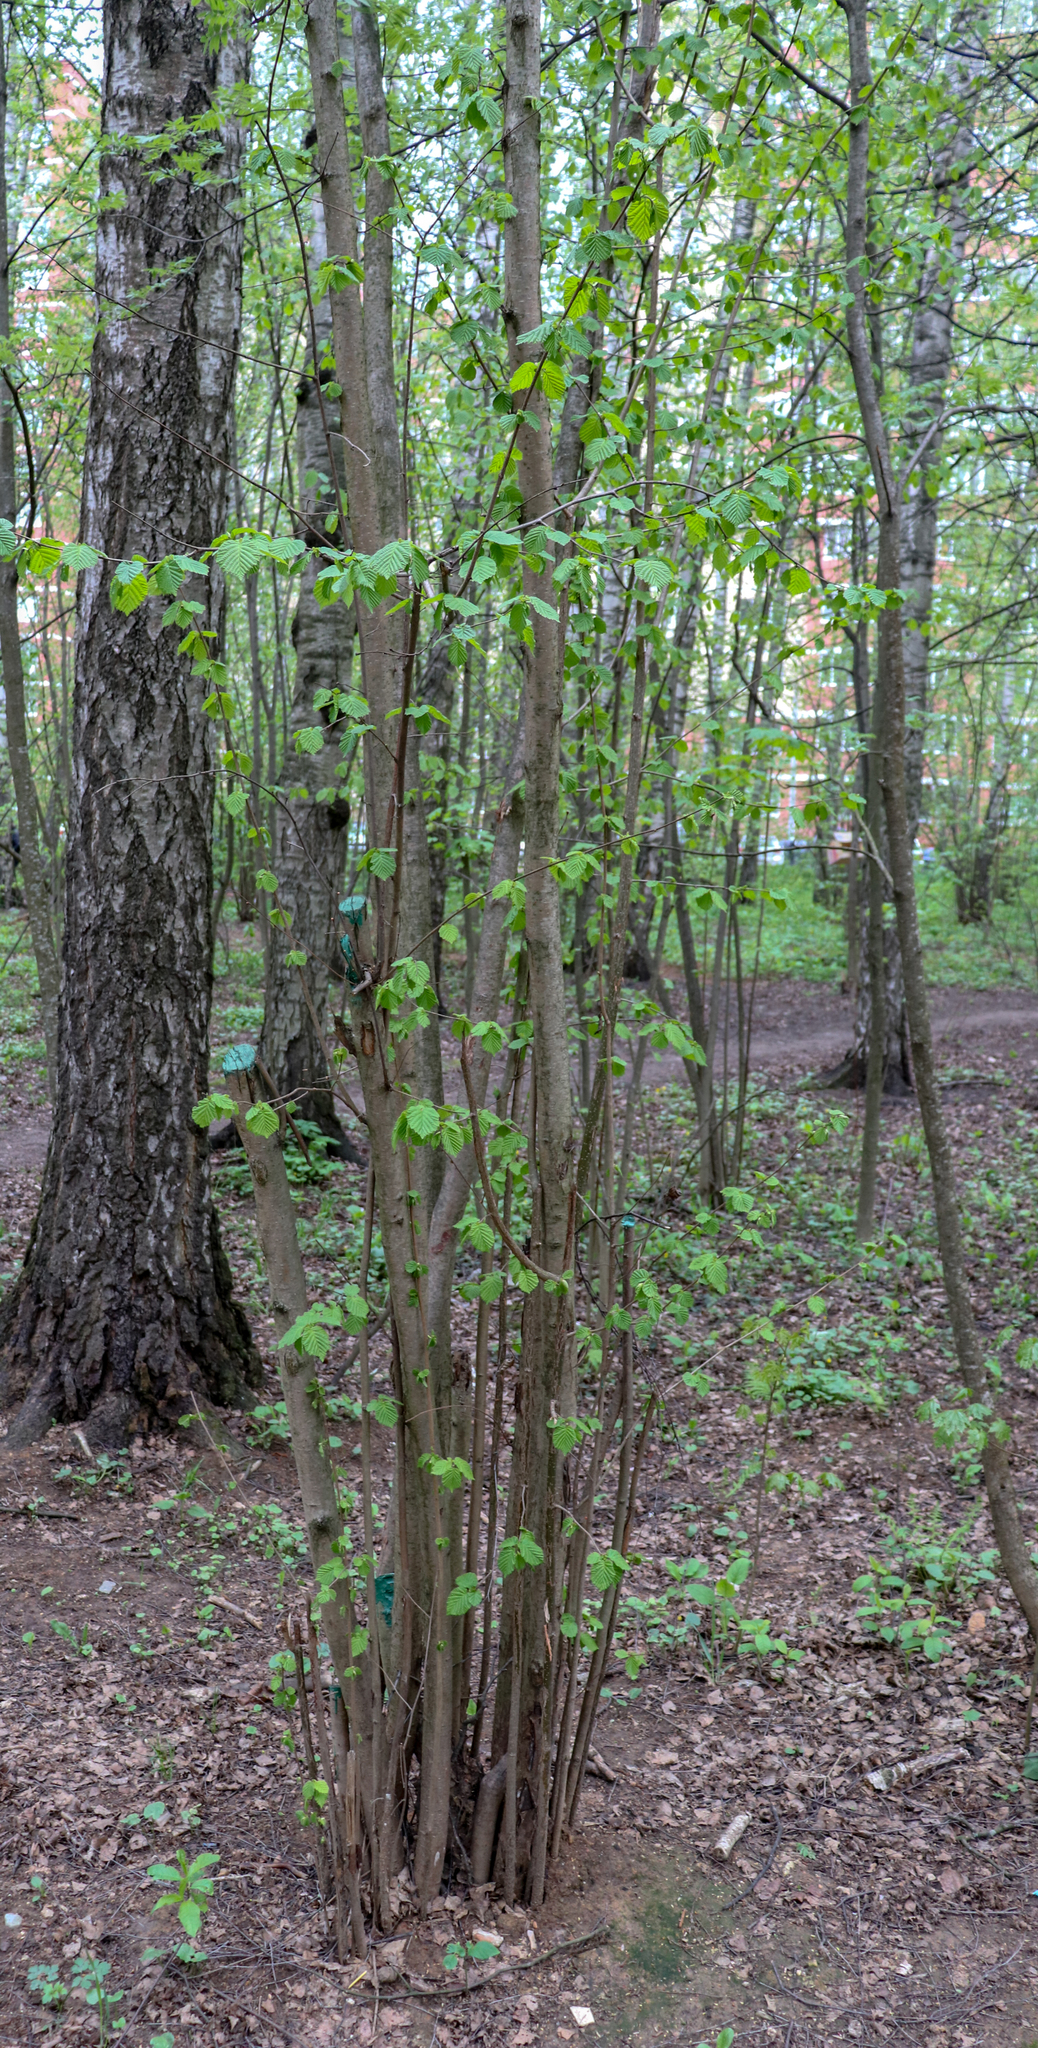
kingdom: Plantae
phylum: Tracheophyta
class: Magnoliopsida
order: Fagales
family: Betulaceae
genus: Corylus
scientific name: Corylus avellana
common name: European hazel
